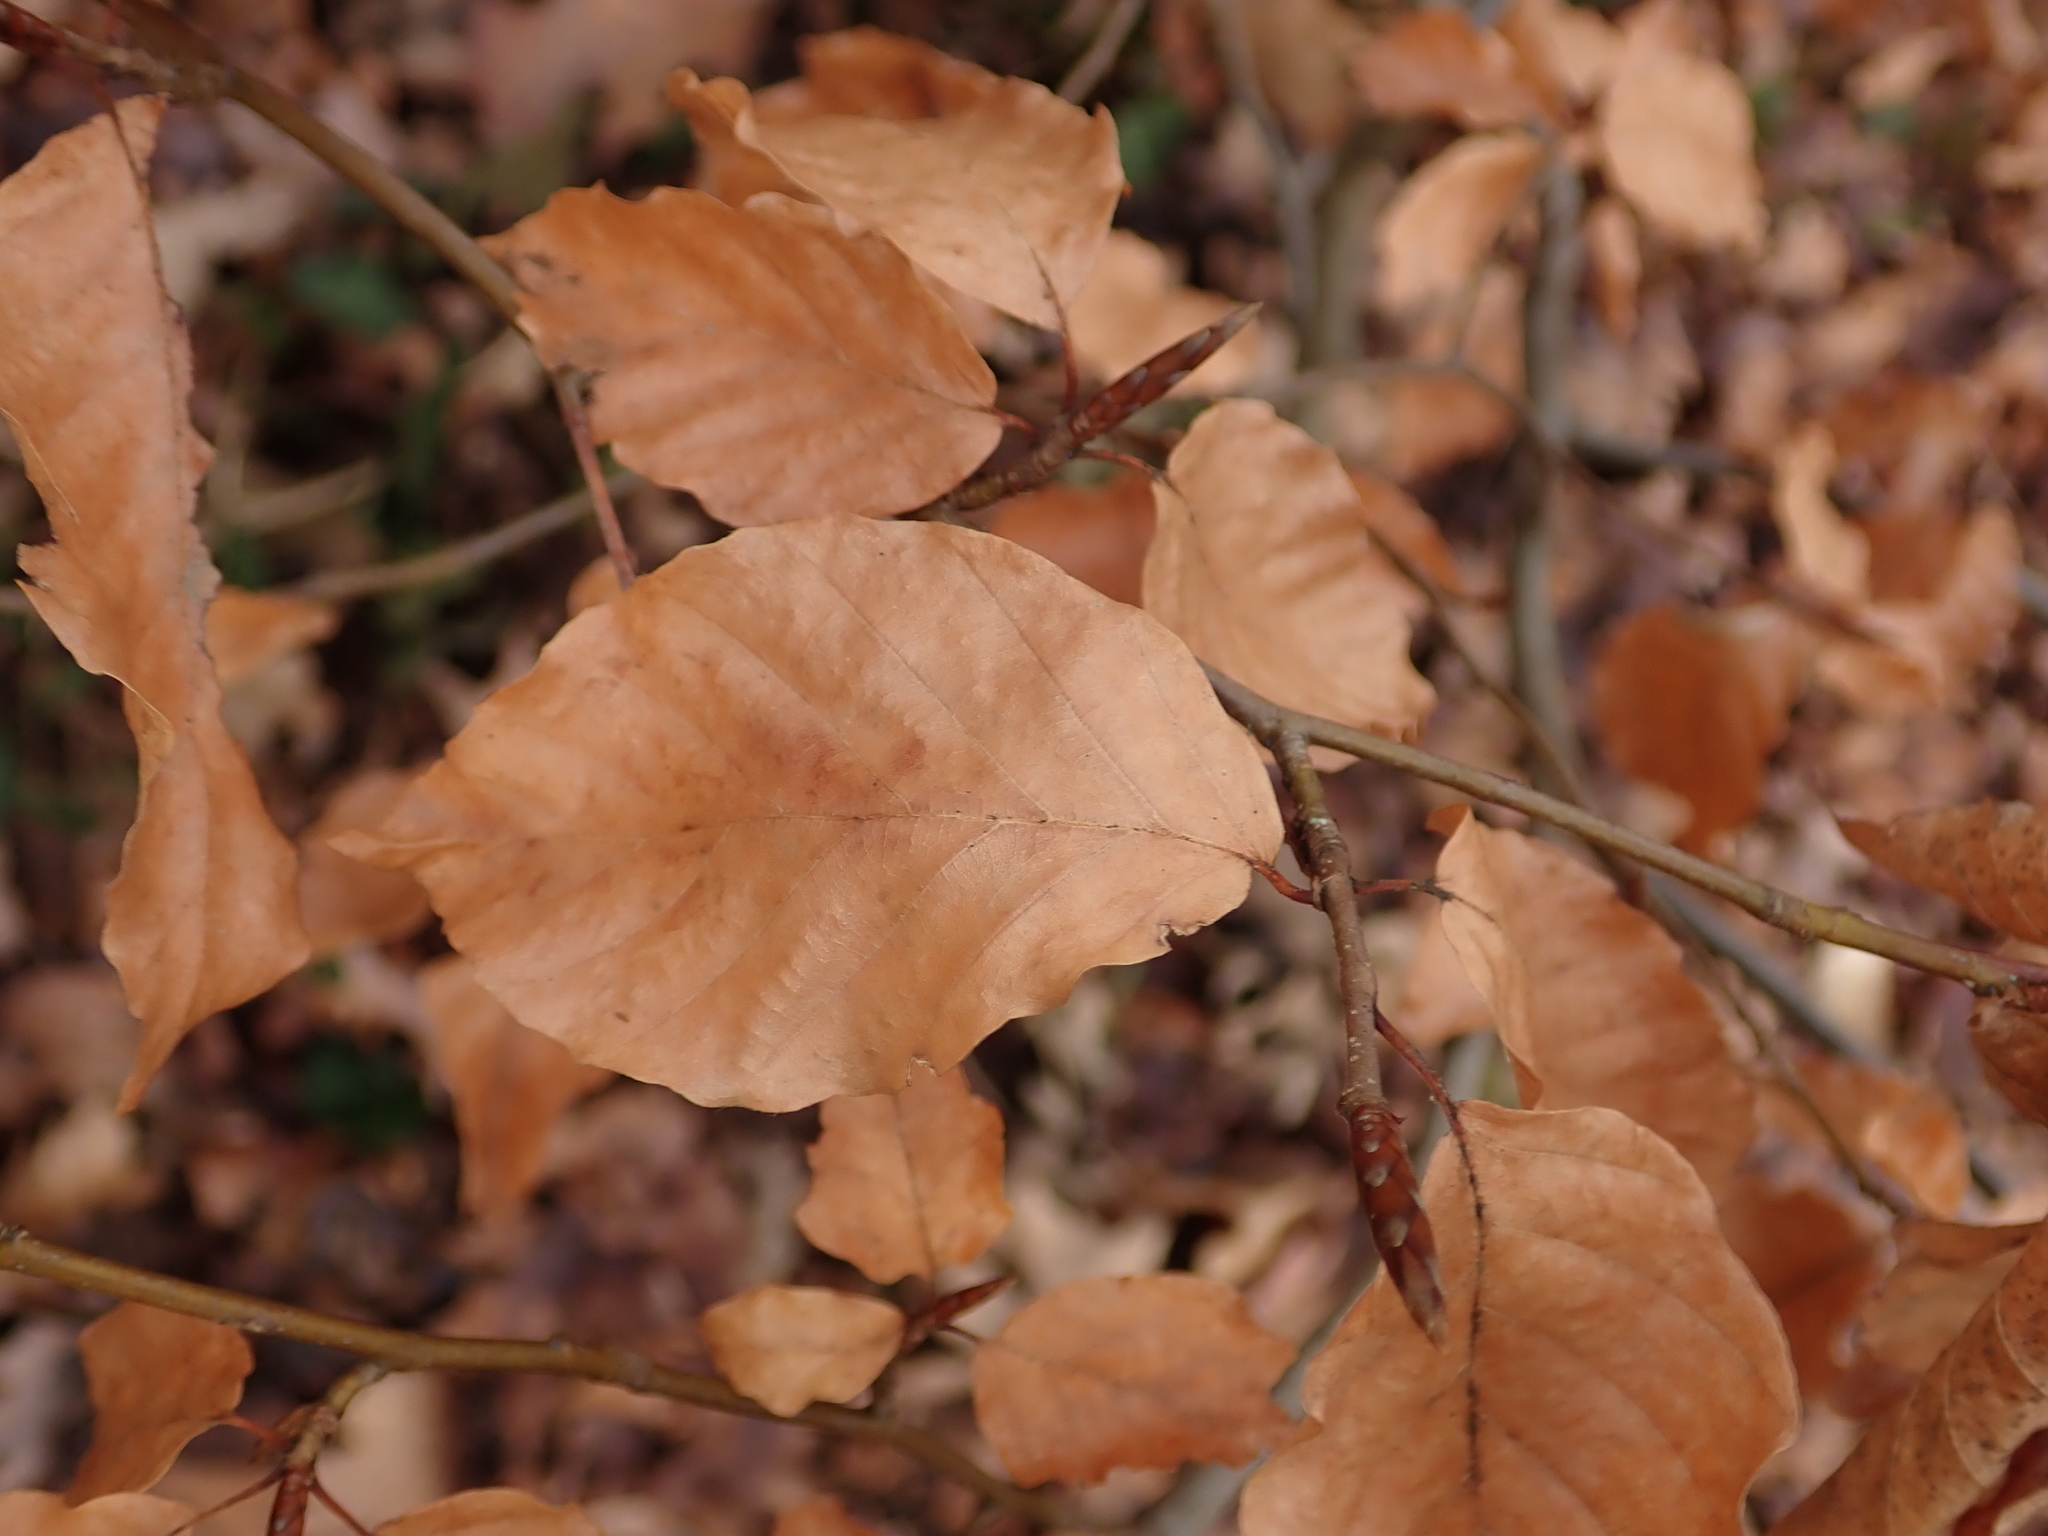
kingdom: Plantae
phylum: Tracheophyta
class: Magnoliopsida
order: Fagales
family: Fagaceae
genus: Fagus
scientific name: Fagus sylvatica
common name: Beech
